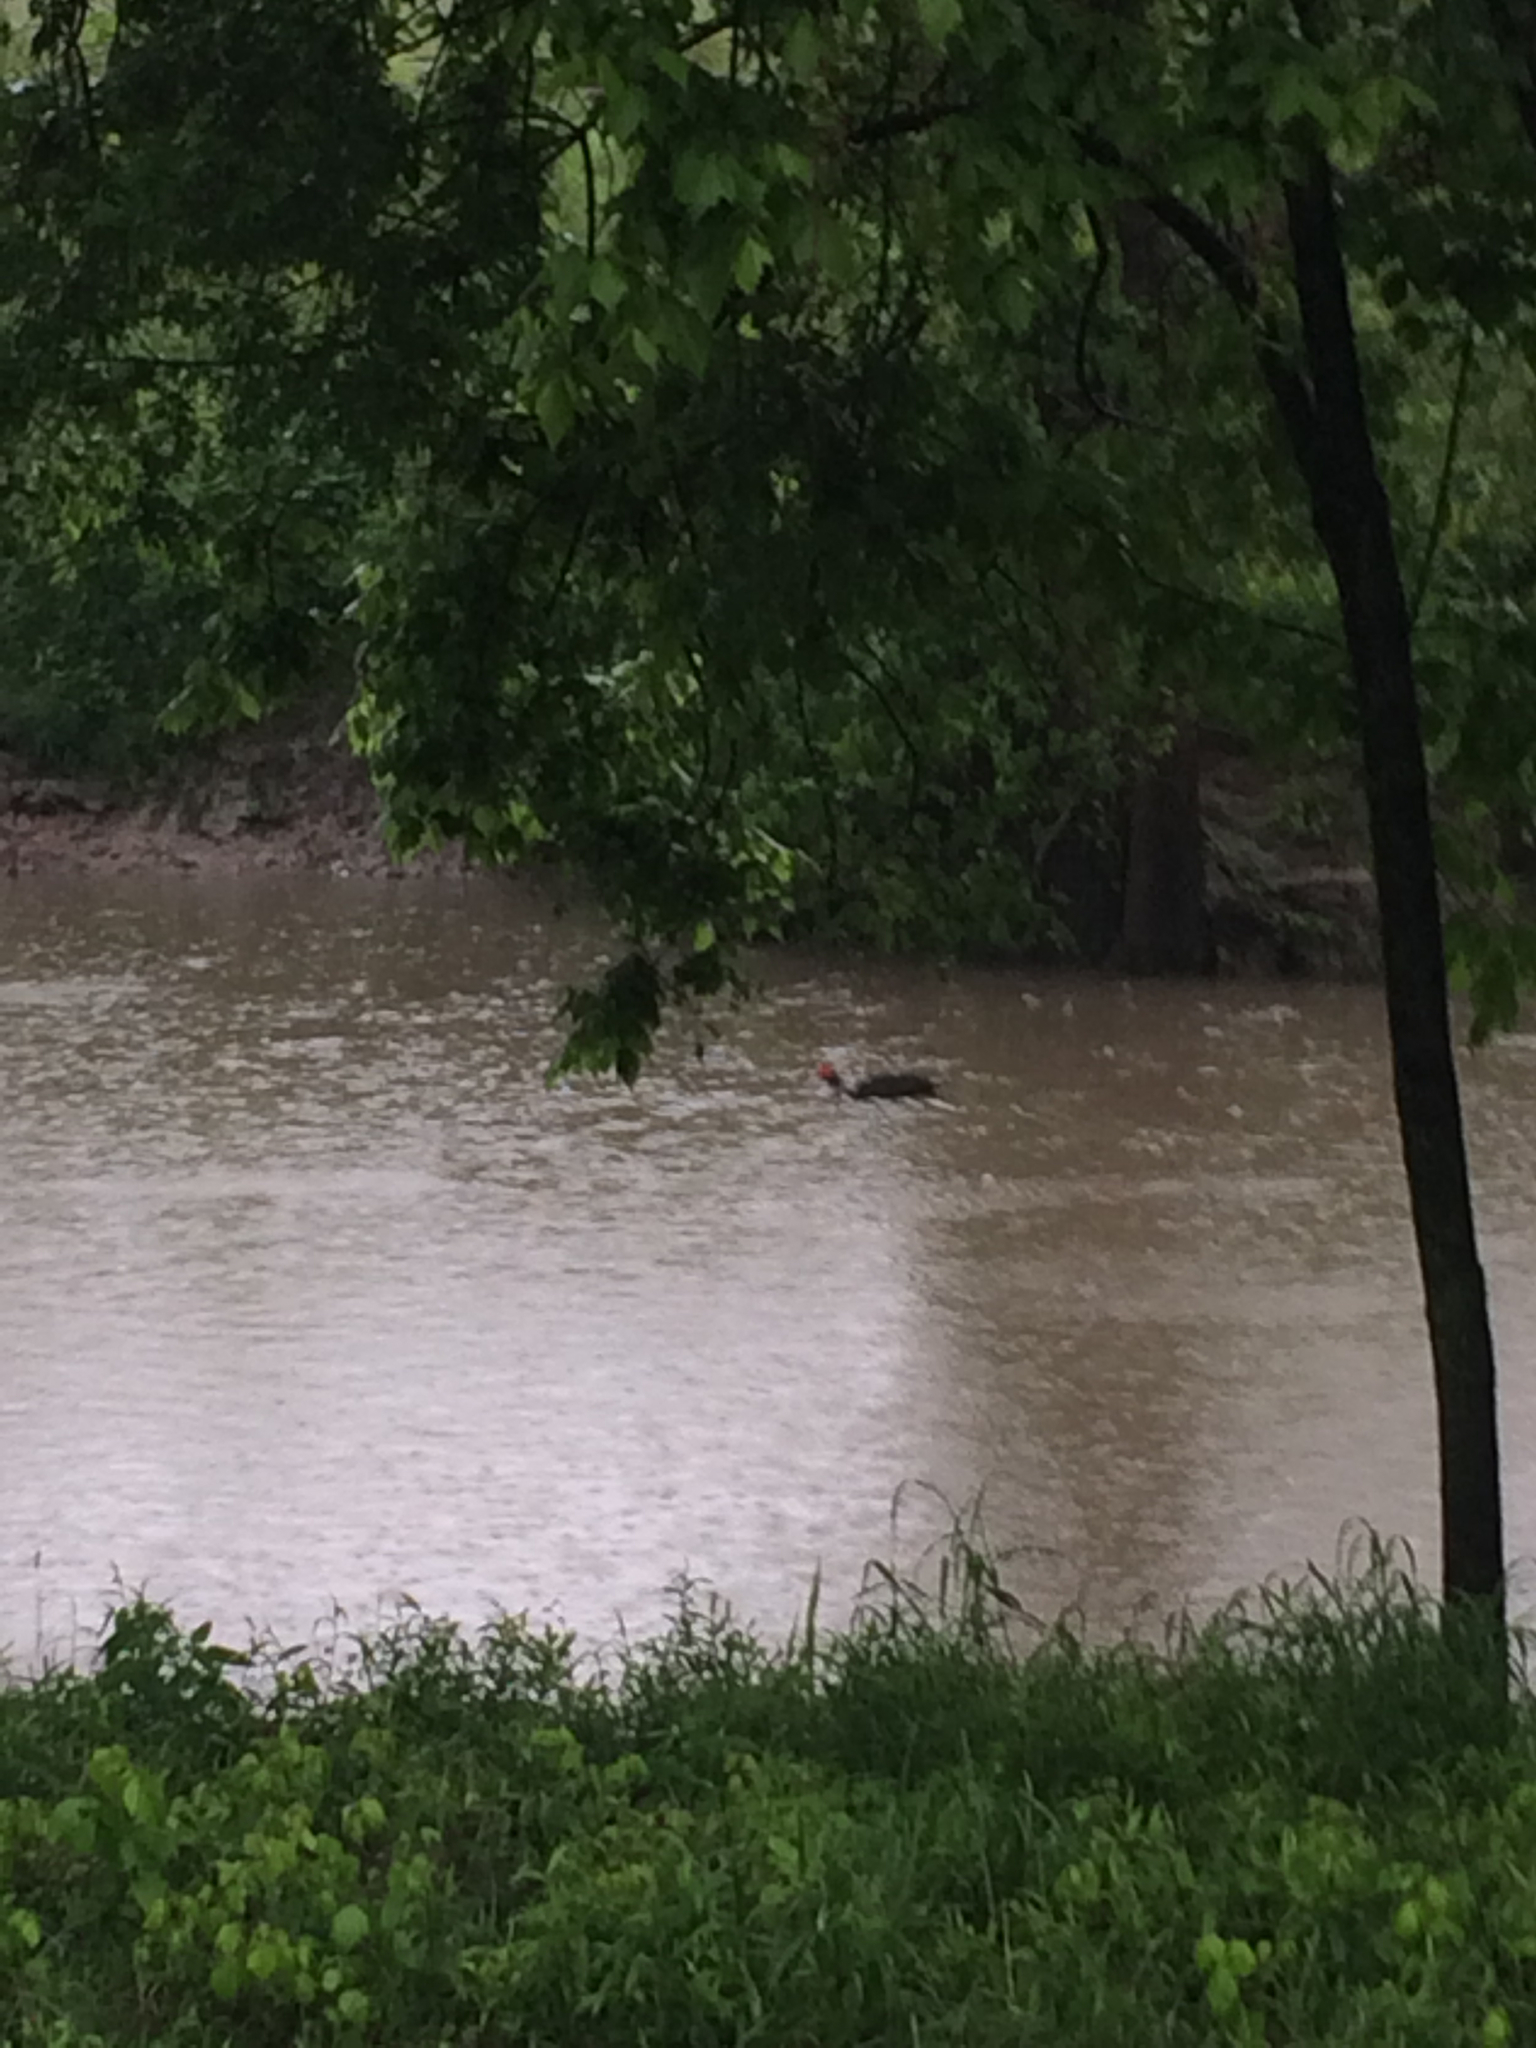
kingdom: Animalia
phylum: Chordata
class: Aves
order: Anseriformes
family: Anatidae
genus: Cairina
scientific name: Cairina moschata
